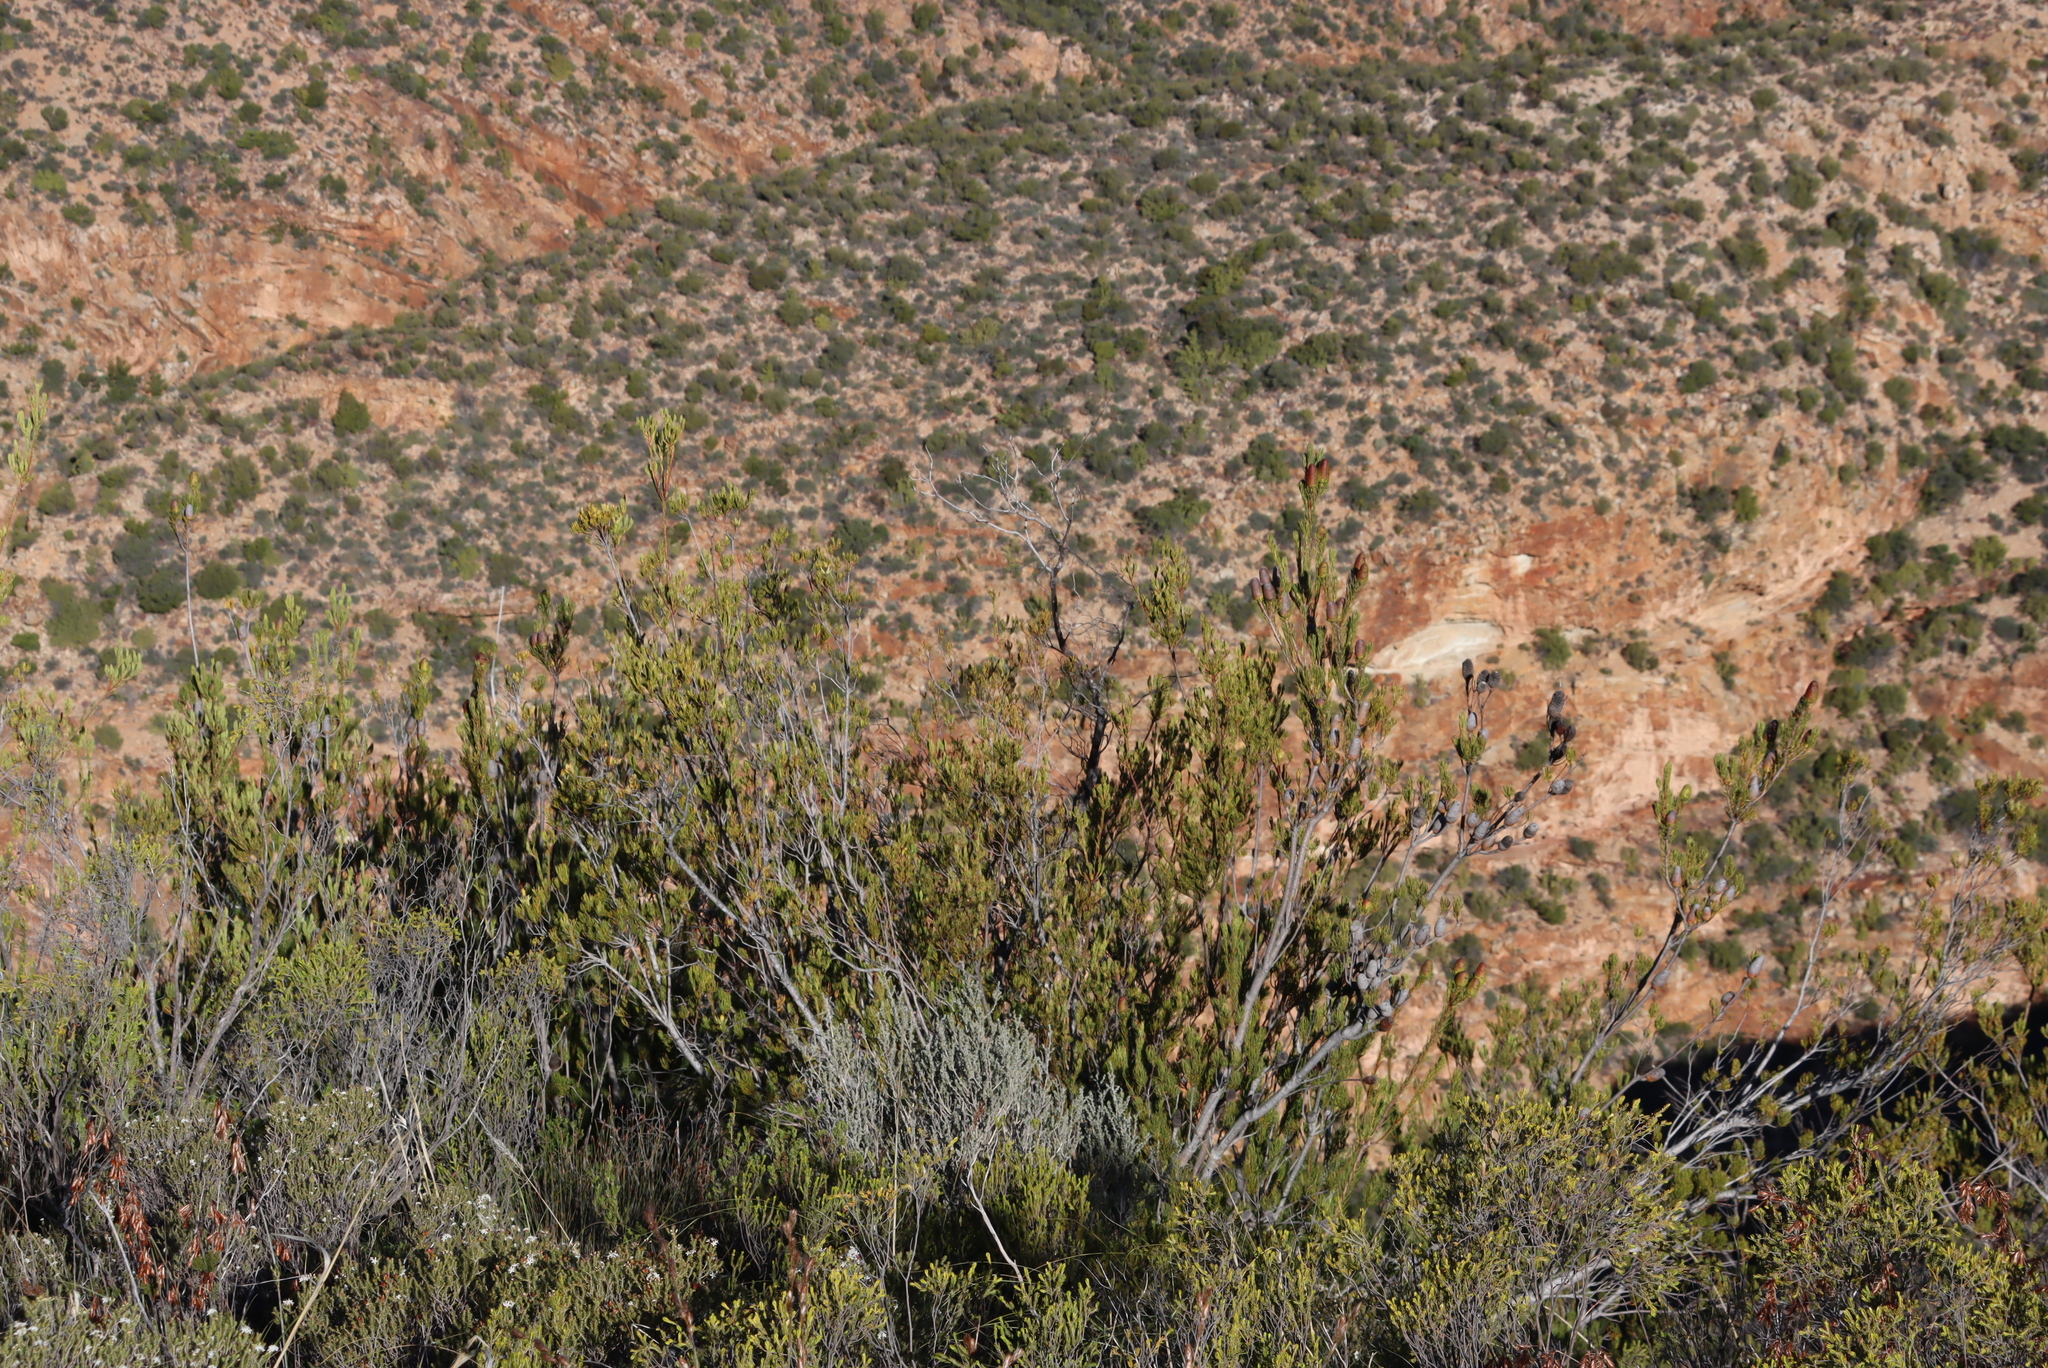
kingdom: Plantae
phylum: Tracheophyta
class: Magnoliopsida
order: Proteales
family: Proteaceae
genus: Leucadendron
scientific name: Leucadendron nobile
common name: Karoo conebush
